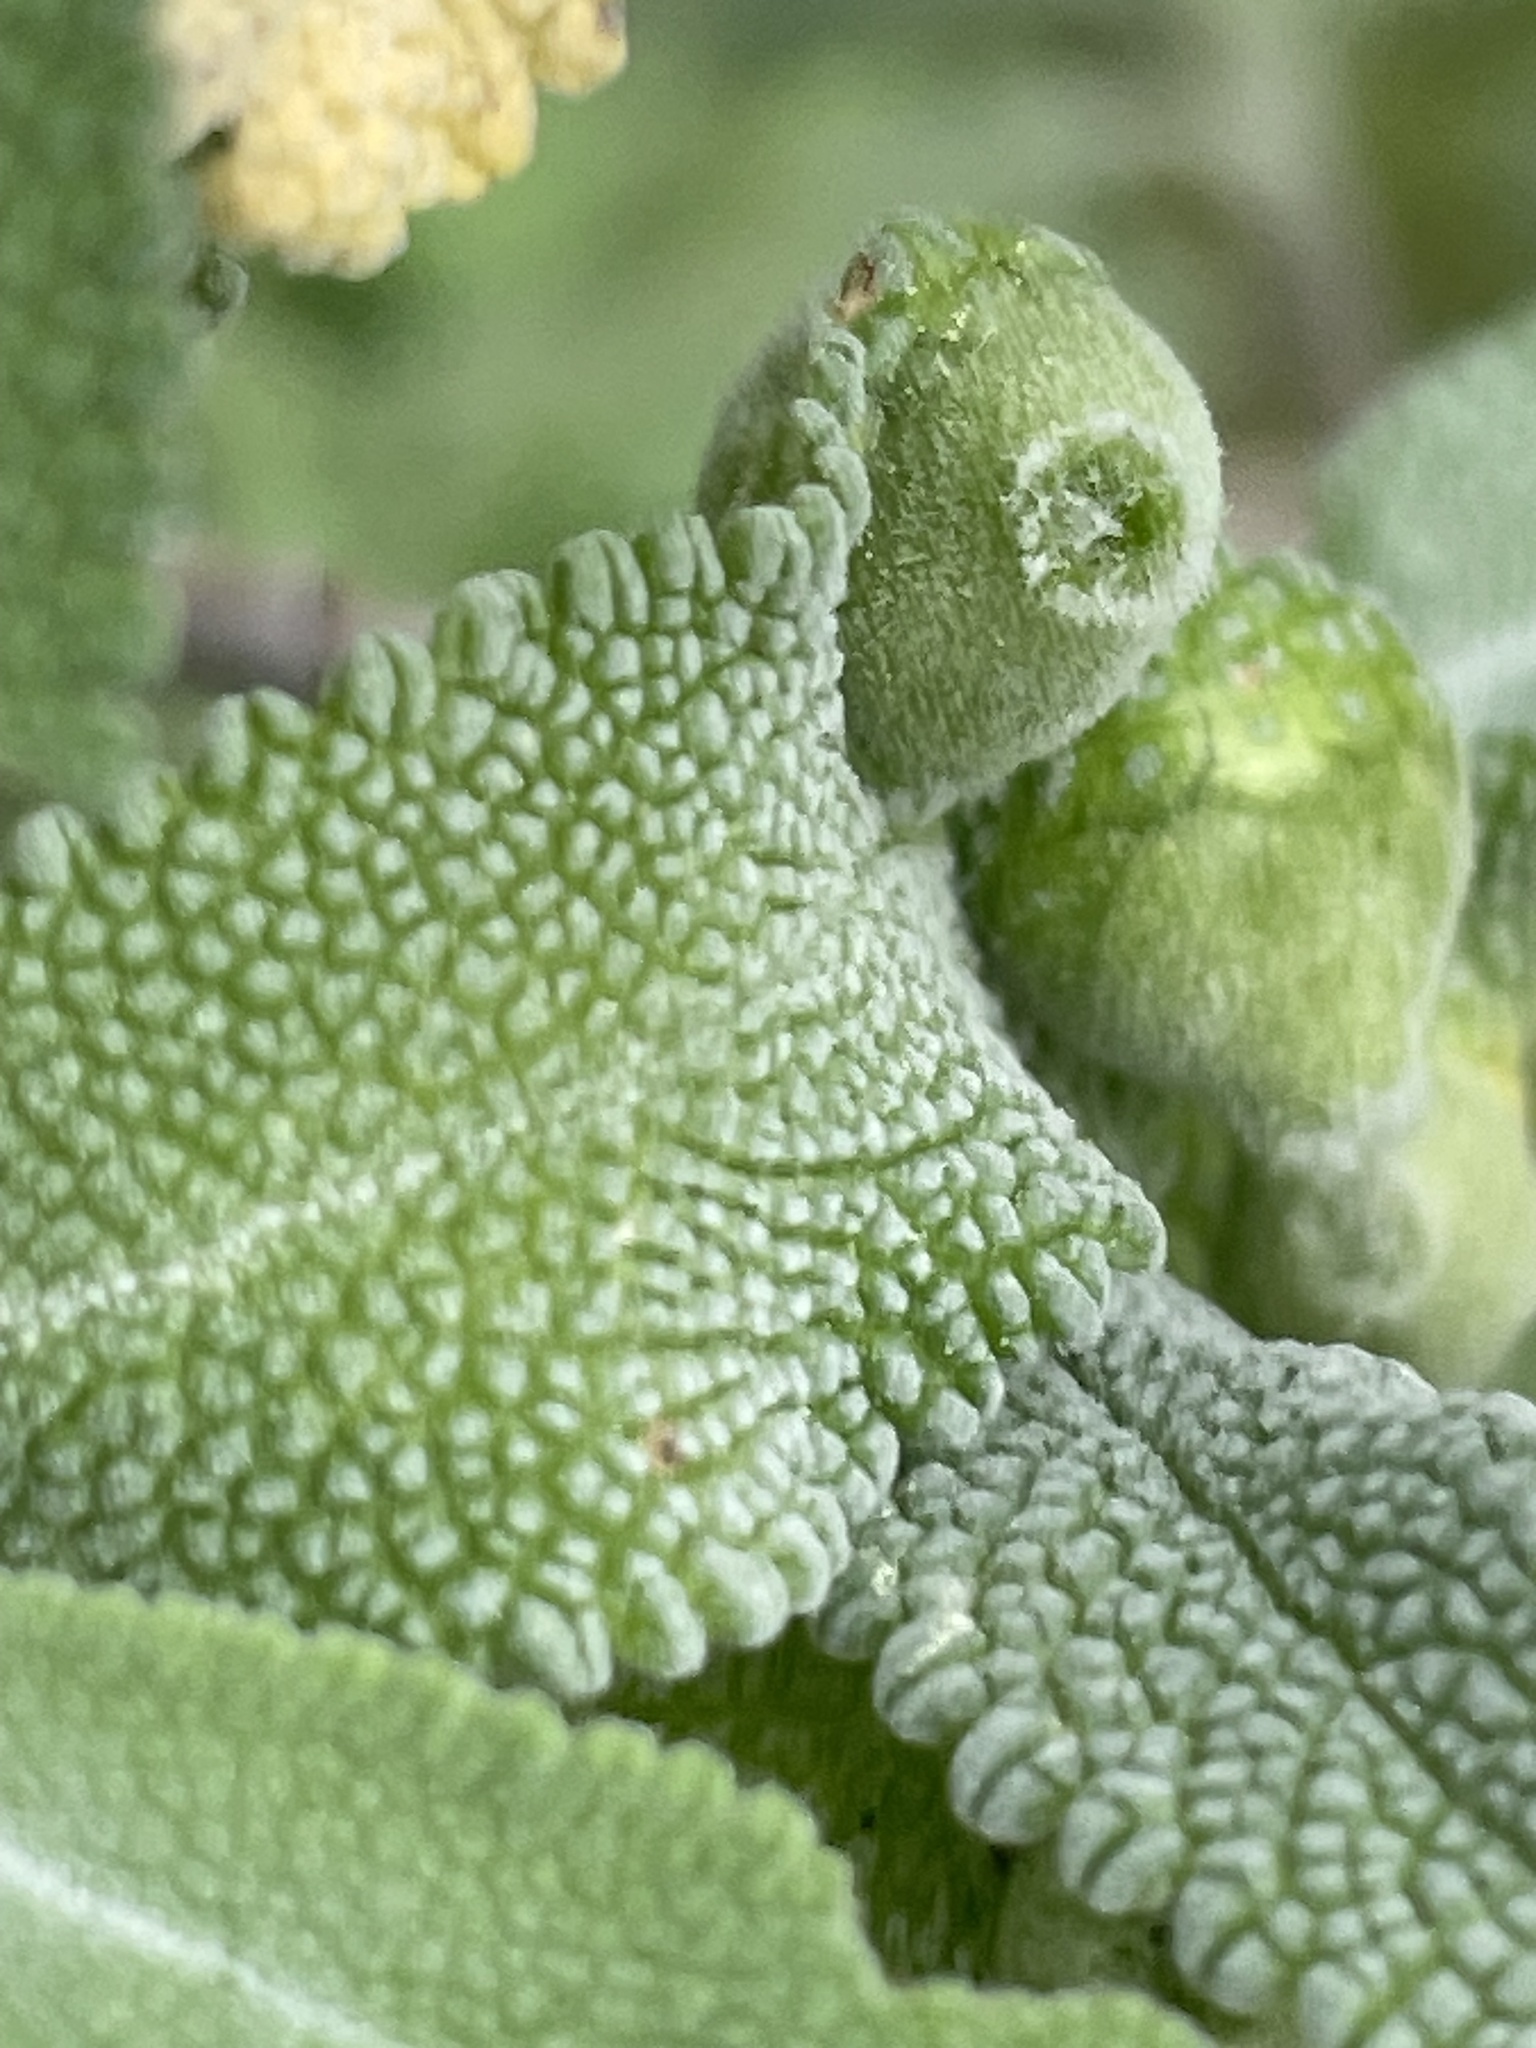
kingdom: Animalia
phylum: Arthropoda
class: Insecta
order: Diptera
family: Cecidomyiidae
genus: Rhopalomyia
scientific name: Rhopalomyia audibertiae
